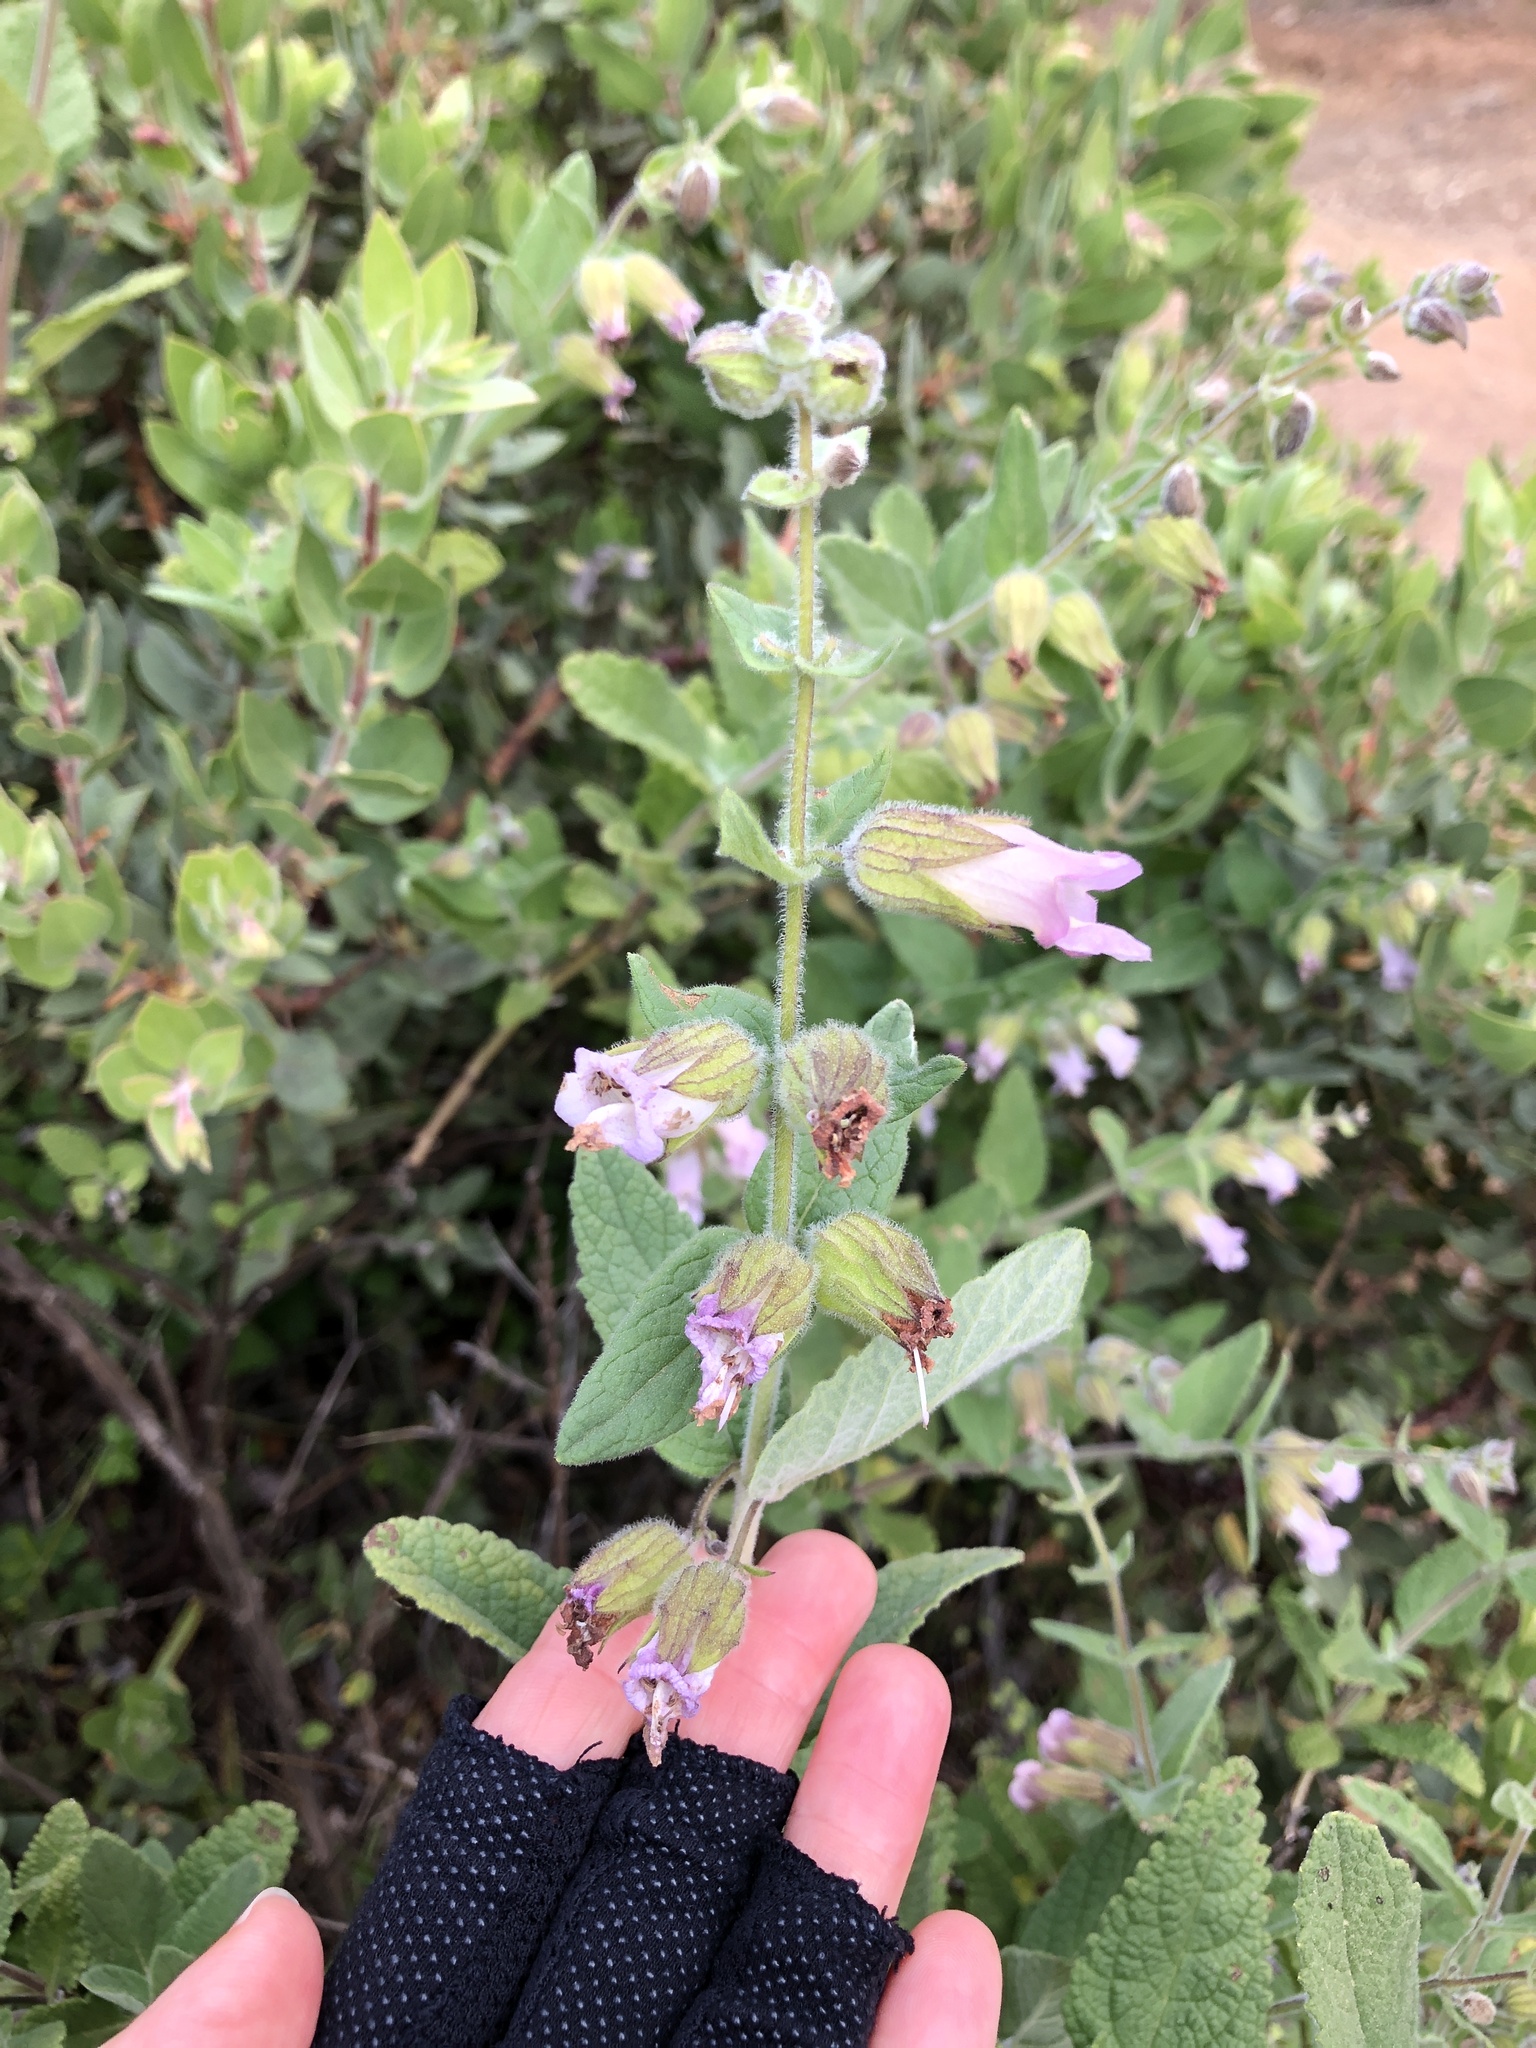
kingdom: Plantae
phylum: Tracheophyta
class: Magnoliopsida
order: Lamiales
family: Lamiaceae
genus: Lepechinia
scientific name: Lepechinia calycina
